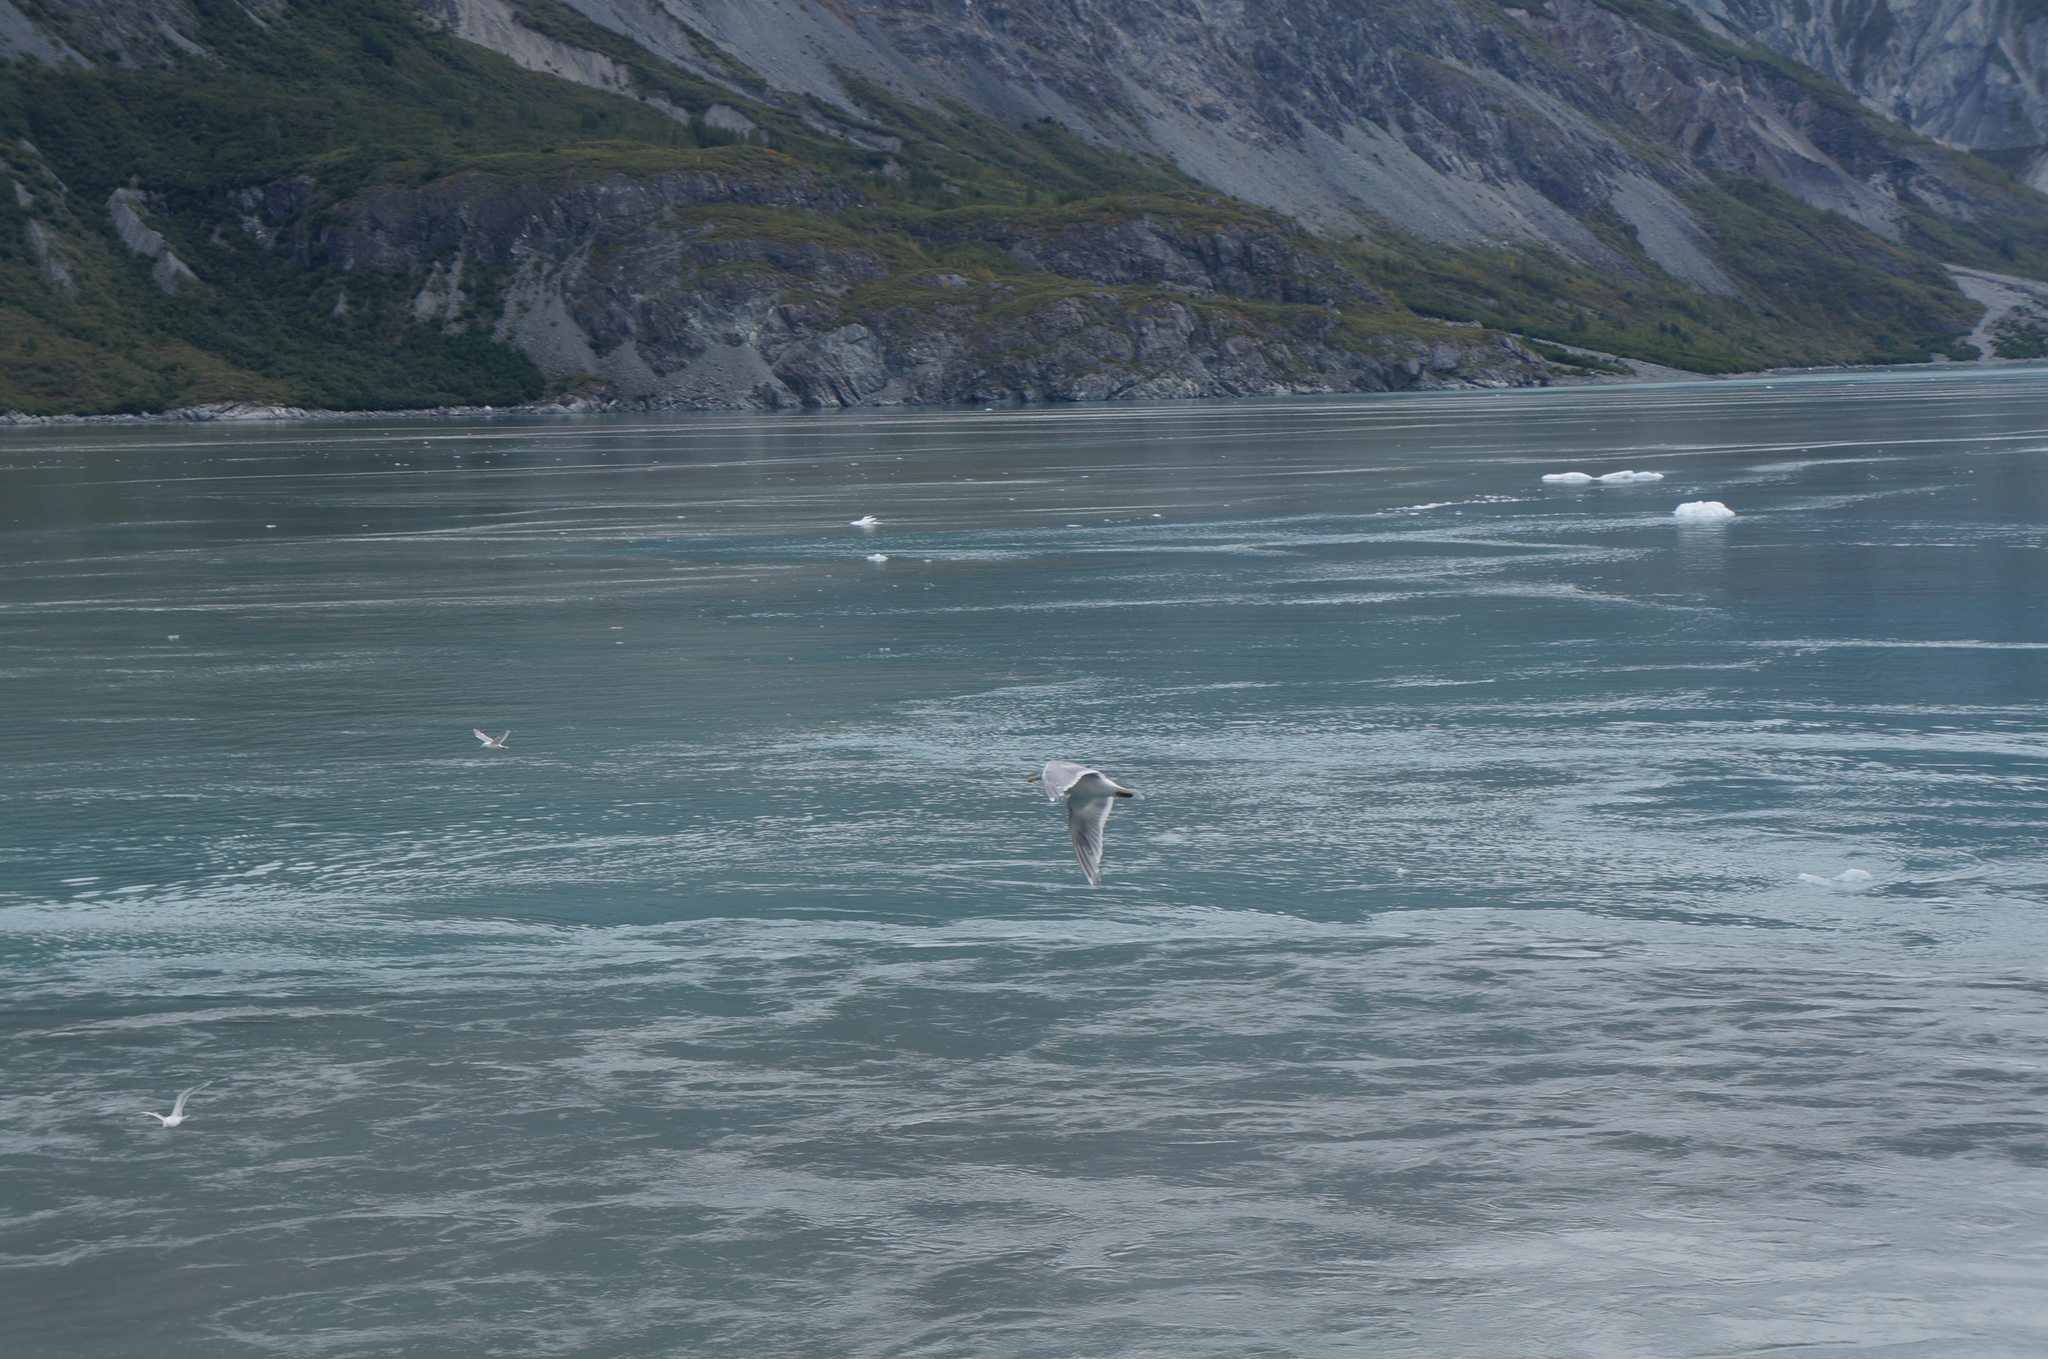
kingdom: Animalia
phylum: Chordata
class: Aves
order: Charadriiformes
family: Laridae
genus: Larus
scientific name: Larus glaucescens
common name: Glaucous-winged gull
